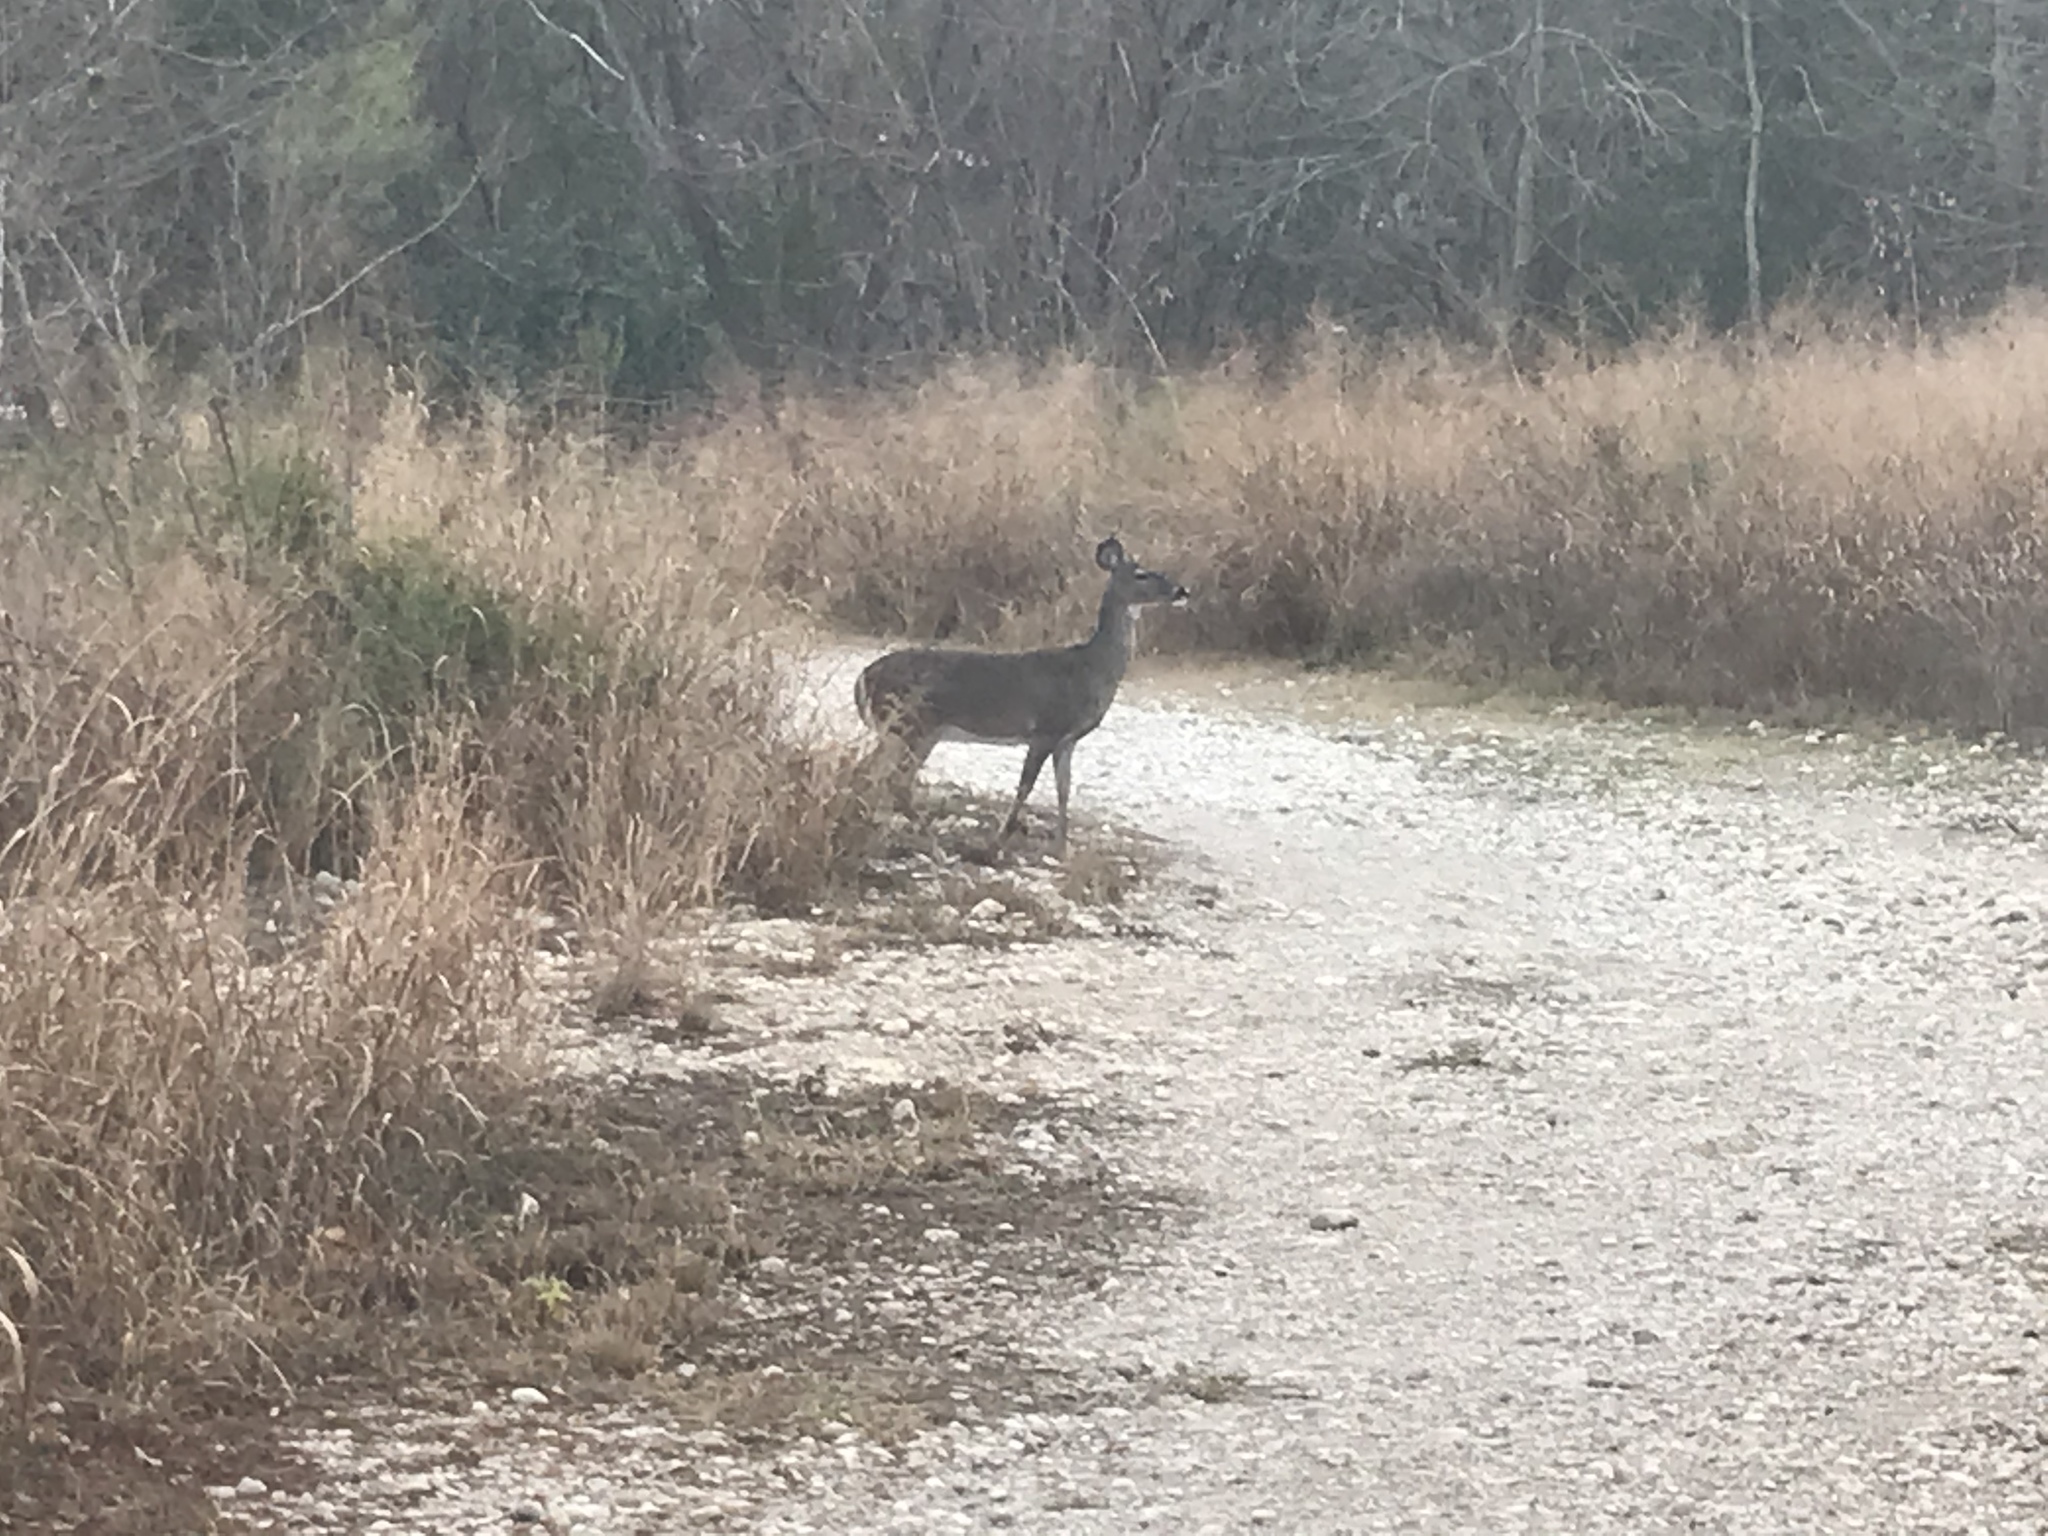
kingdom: Animalia
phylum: Chordata
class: Mammalia
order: Artiodactyla
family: Cervidae
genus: Odocoileus
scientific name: Odocoileus virginianus
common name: White-tailed deer
